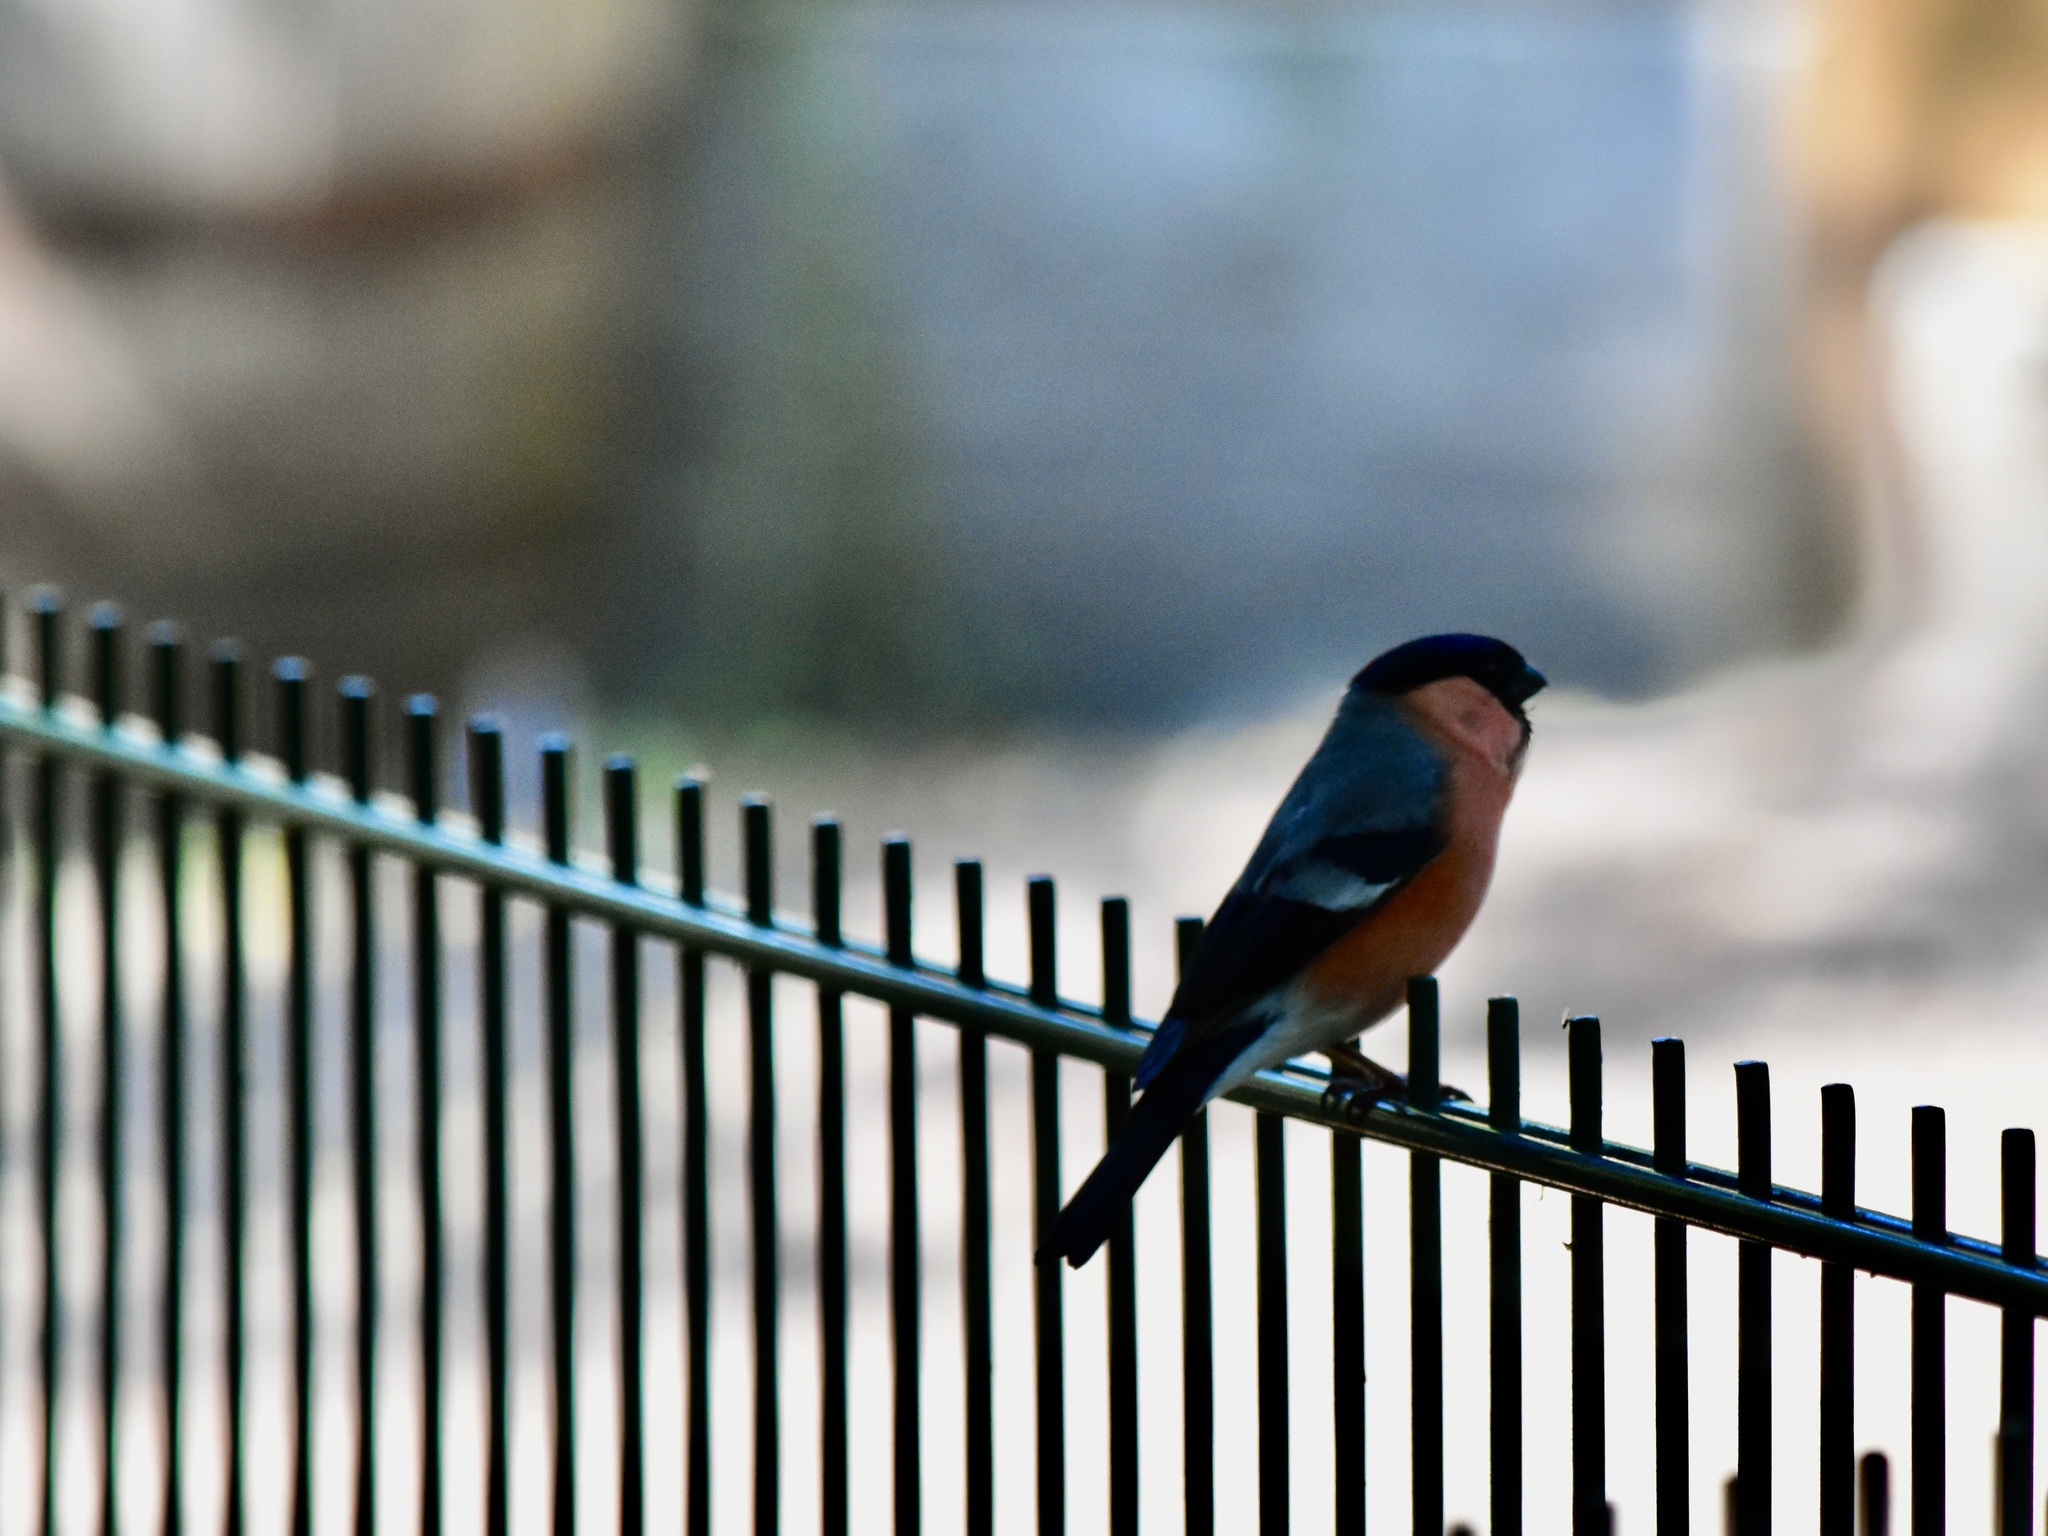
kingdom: Animalia
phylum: Chordata
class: Aves
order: Passeriformes
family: Fringillidae
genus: Pyrrhula
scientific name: Pyrrhula pyrrhula
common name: Eurasian bullfinch
